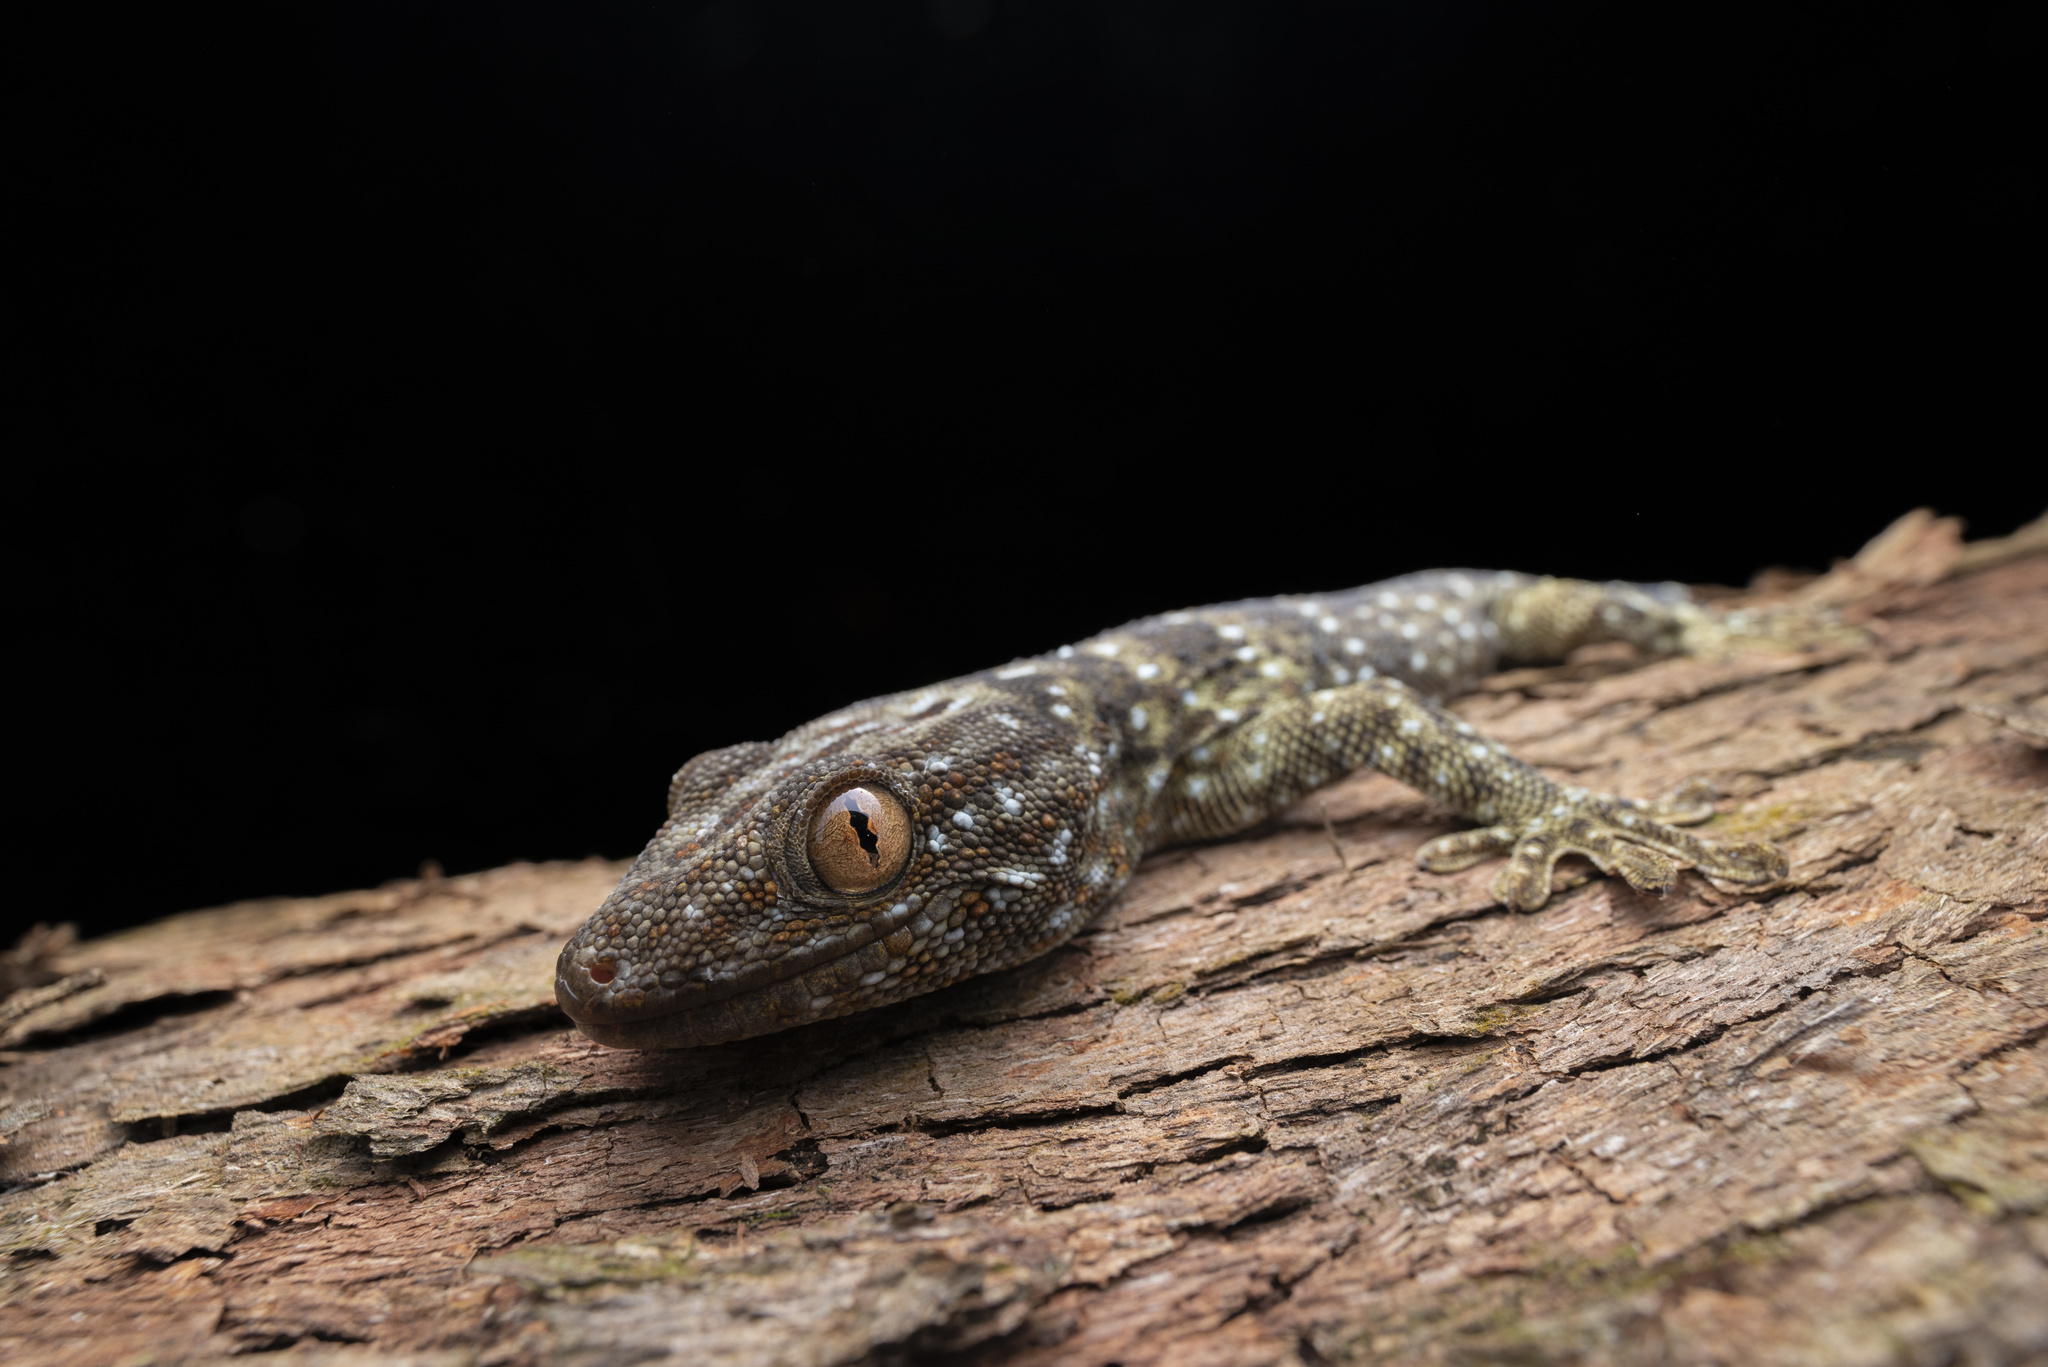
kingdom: Animalia
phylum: Chordata
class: Squamata
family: Gekkonidae
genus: Gekko
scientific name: Gekko reevesii
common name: Reeves’ tokay gecko
